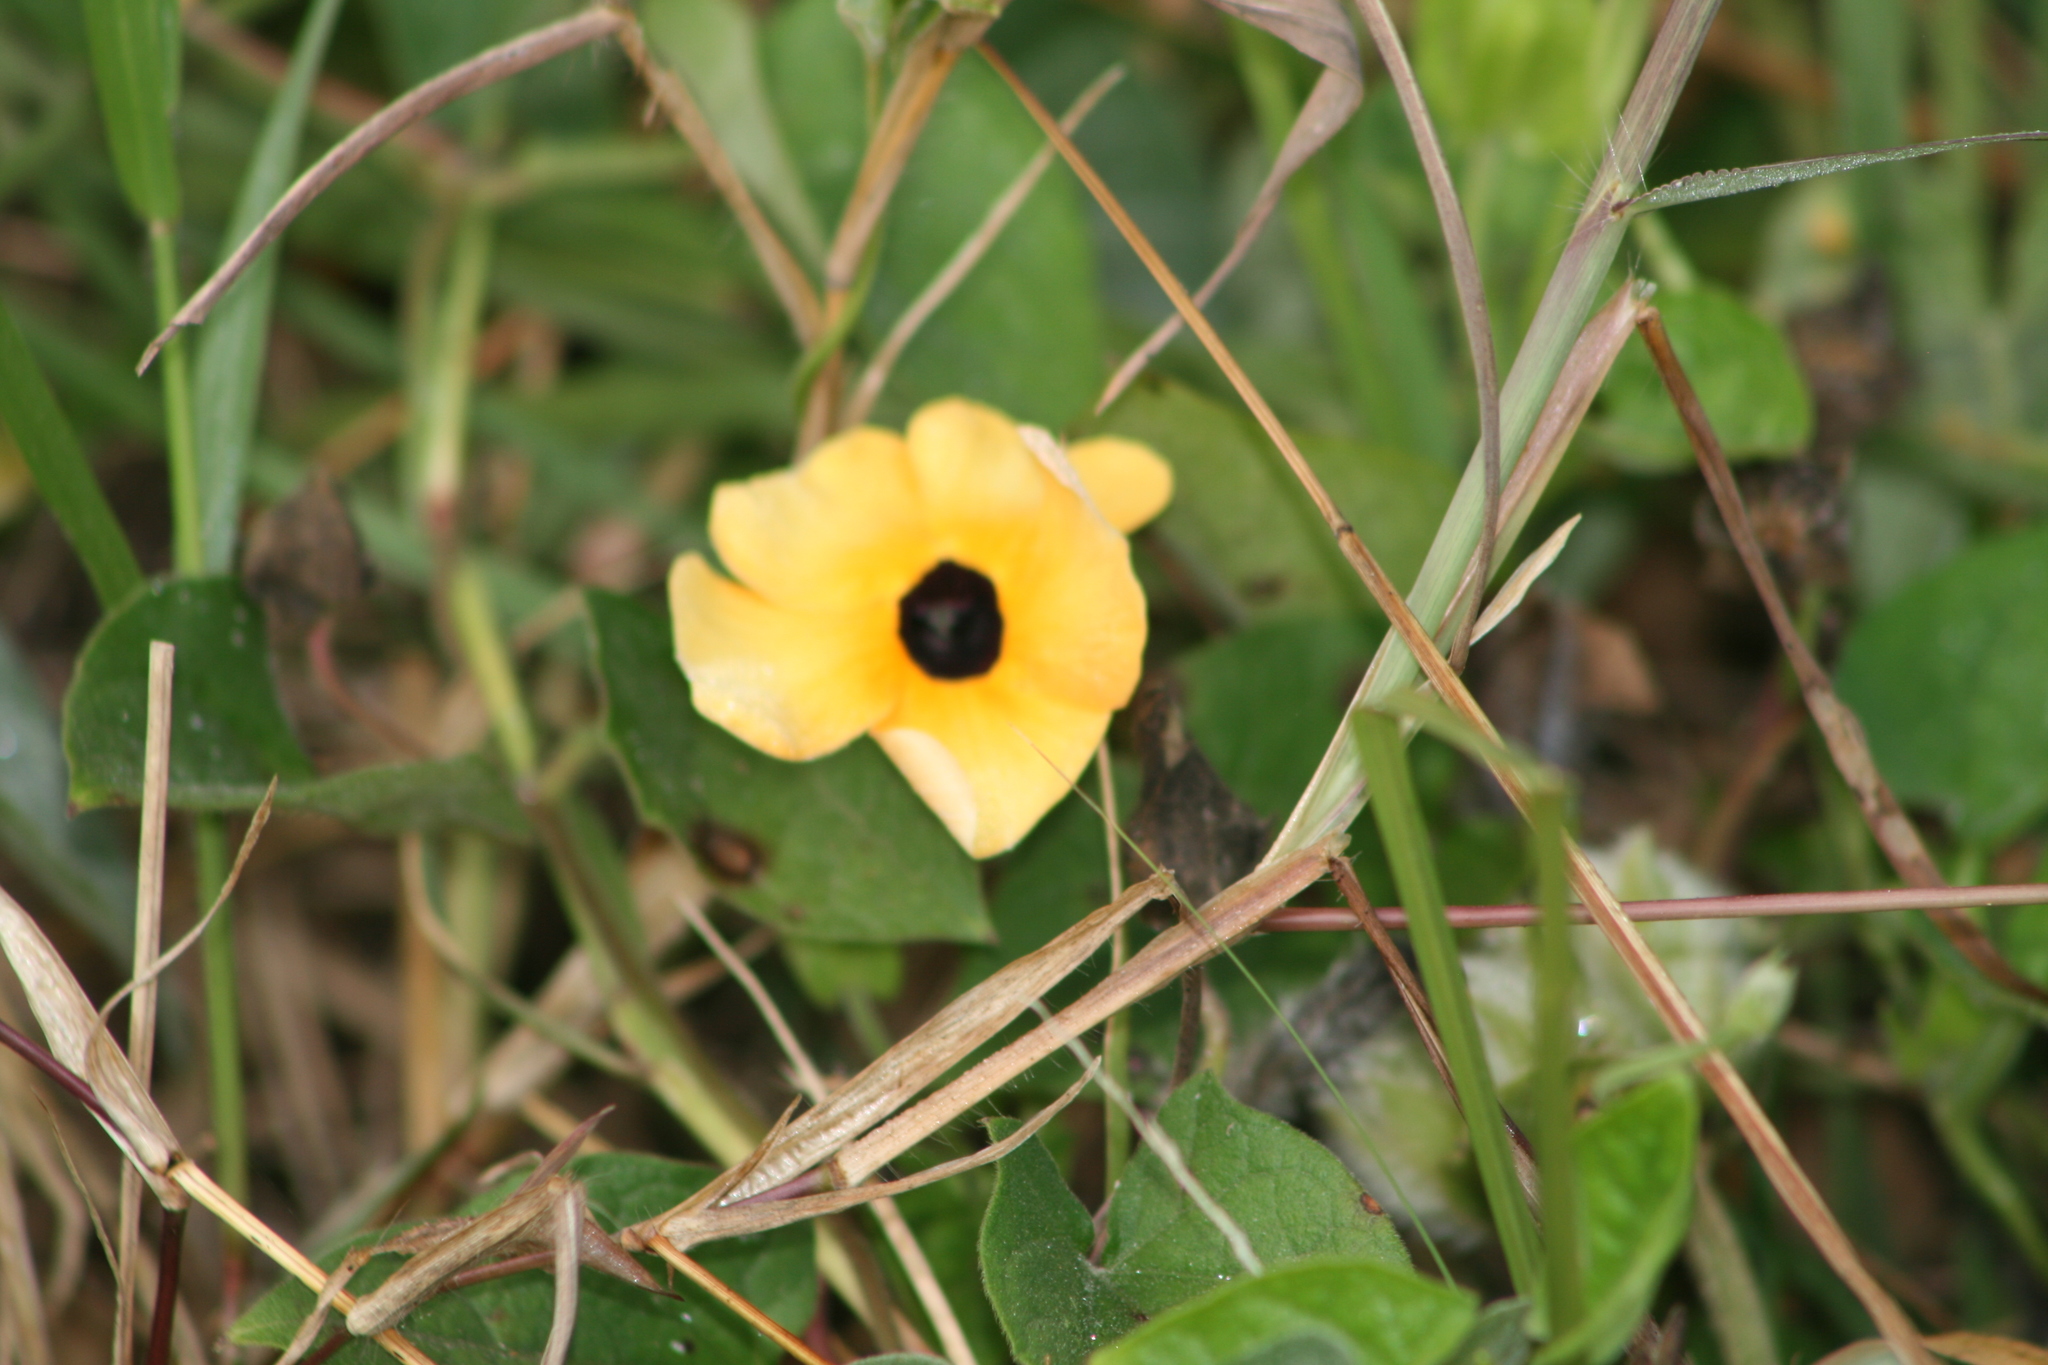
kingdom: Plantae
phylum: Tracheophyta
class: Magnoliopsida
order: Lamiales
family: Acanthaceae
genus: Thunbergia
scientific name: Thunbergia alata
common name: Blackeyed susan vine
